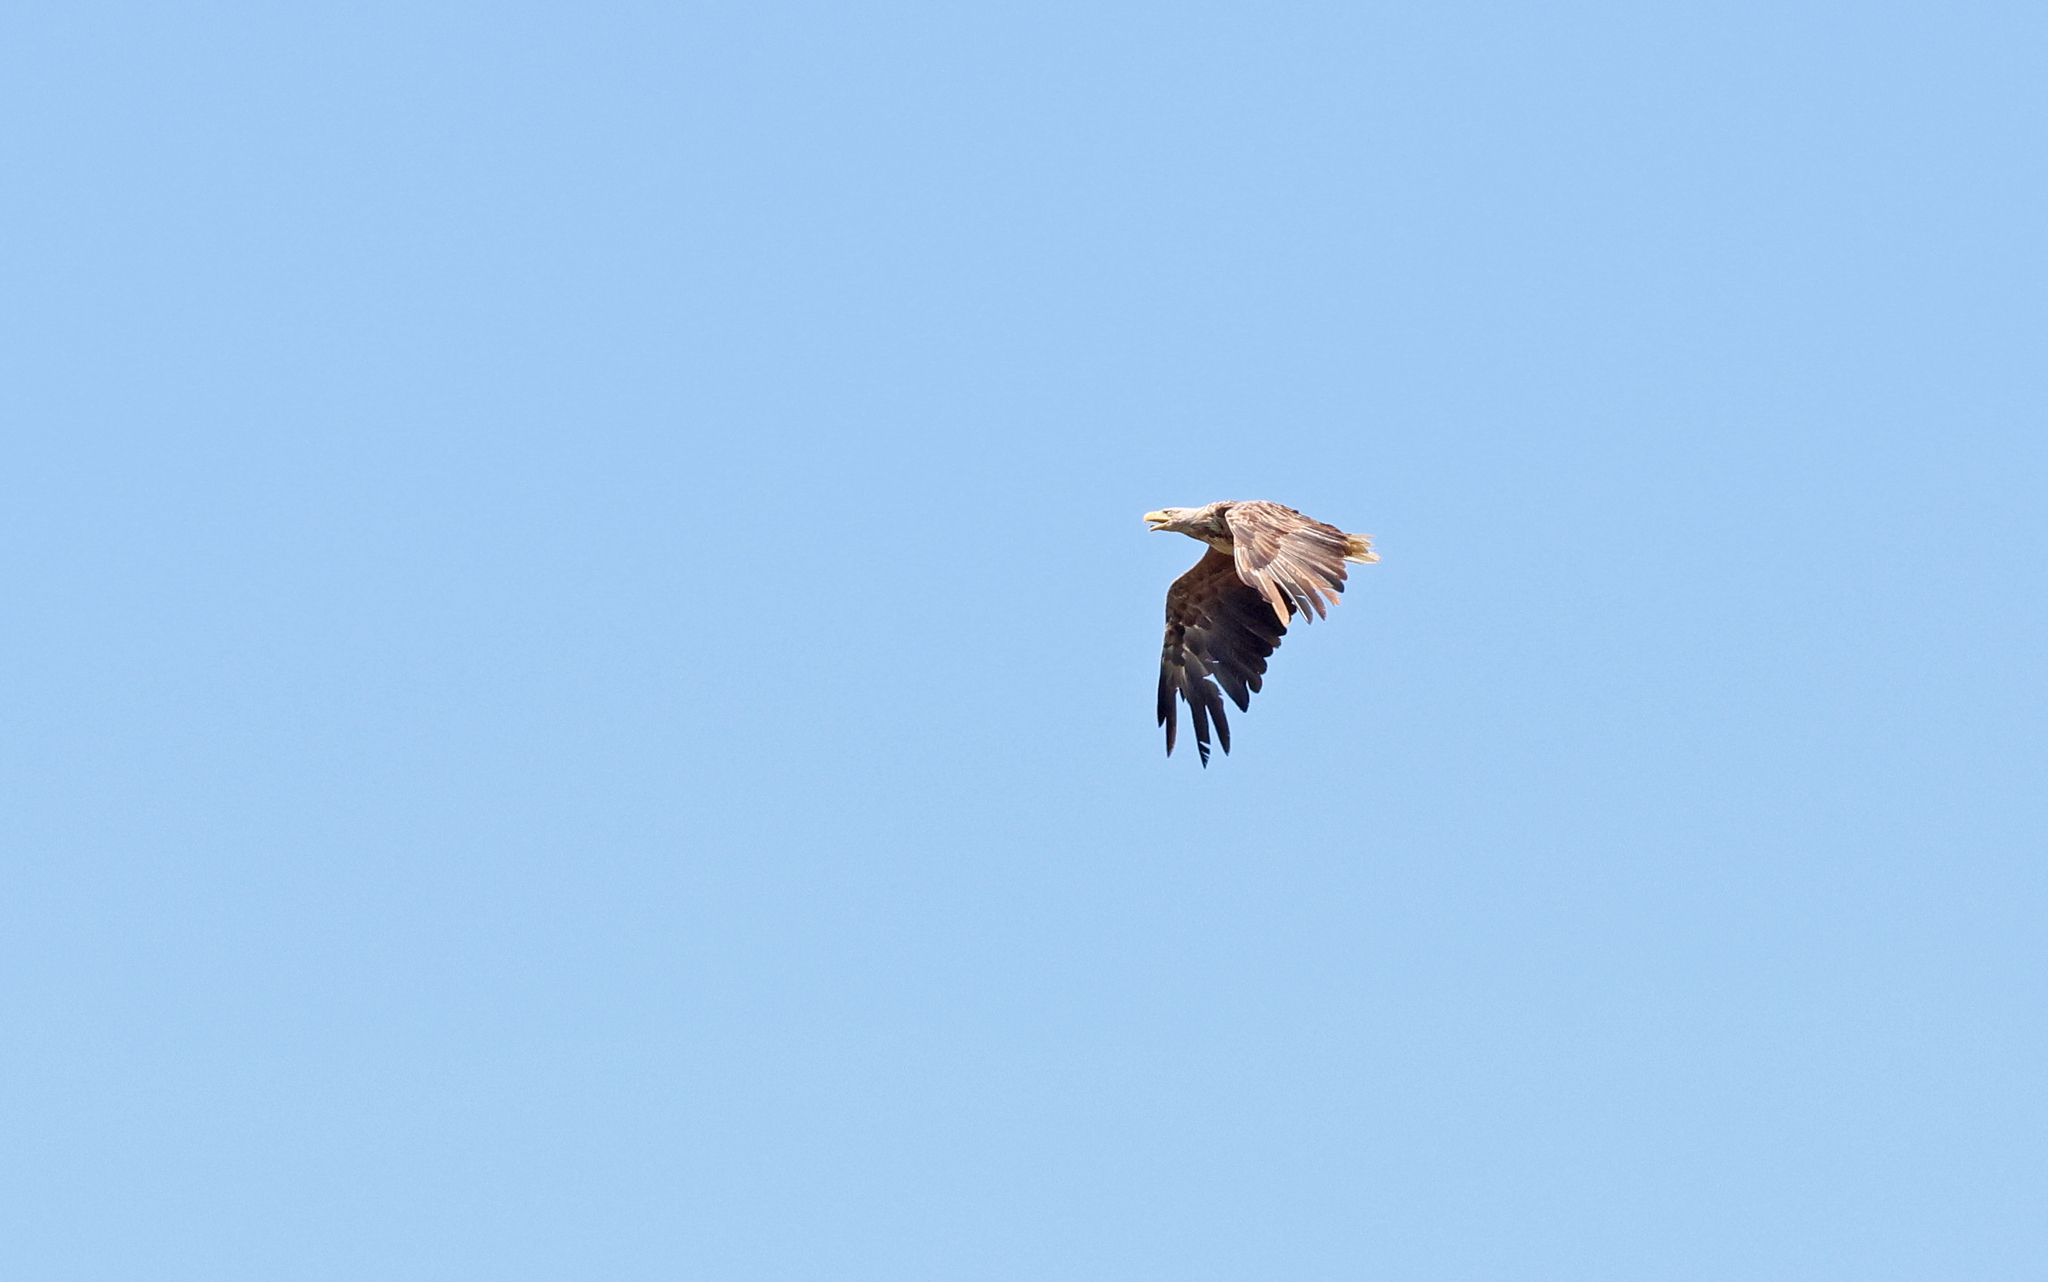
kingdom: Animalia
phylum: Chordata
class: Aves
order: Accipitriformes
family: Accipitridae
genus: Haliaeetus
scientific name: Haliaeetus albicilla
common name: White-tailed eagle
